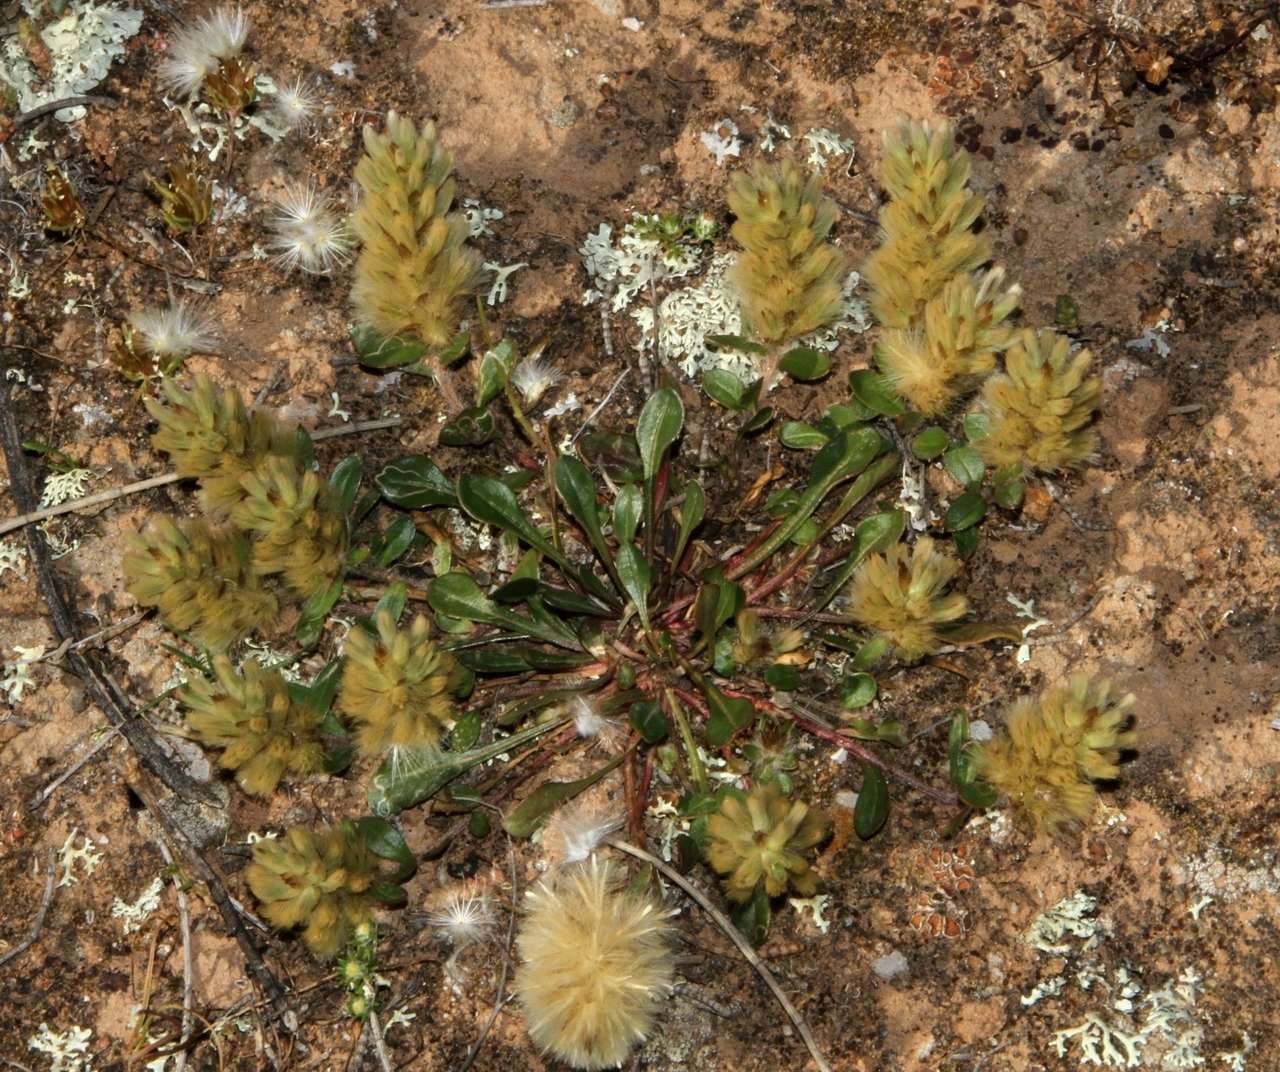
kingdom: Plantae
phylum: Tracheophyta
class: Magnoliopsida
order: Caryophyllales
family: Amaranthaceae
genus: Ptilotus
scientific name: Ptilotus spathulatus
